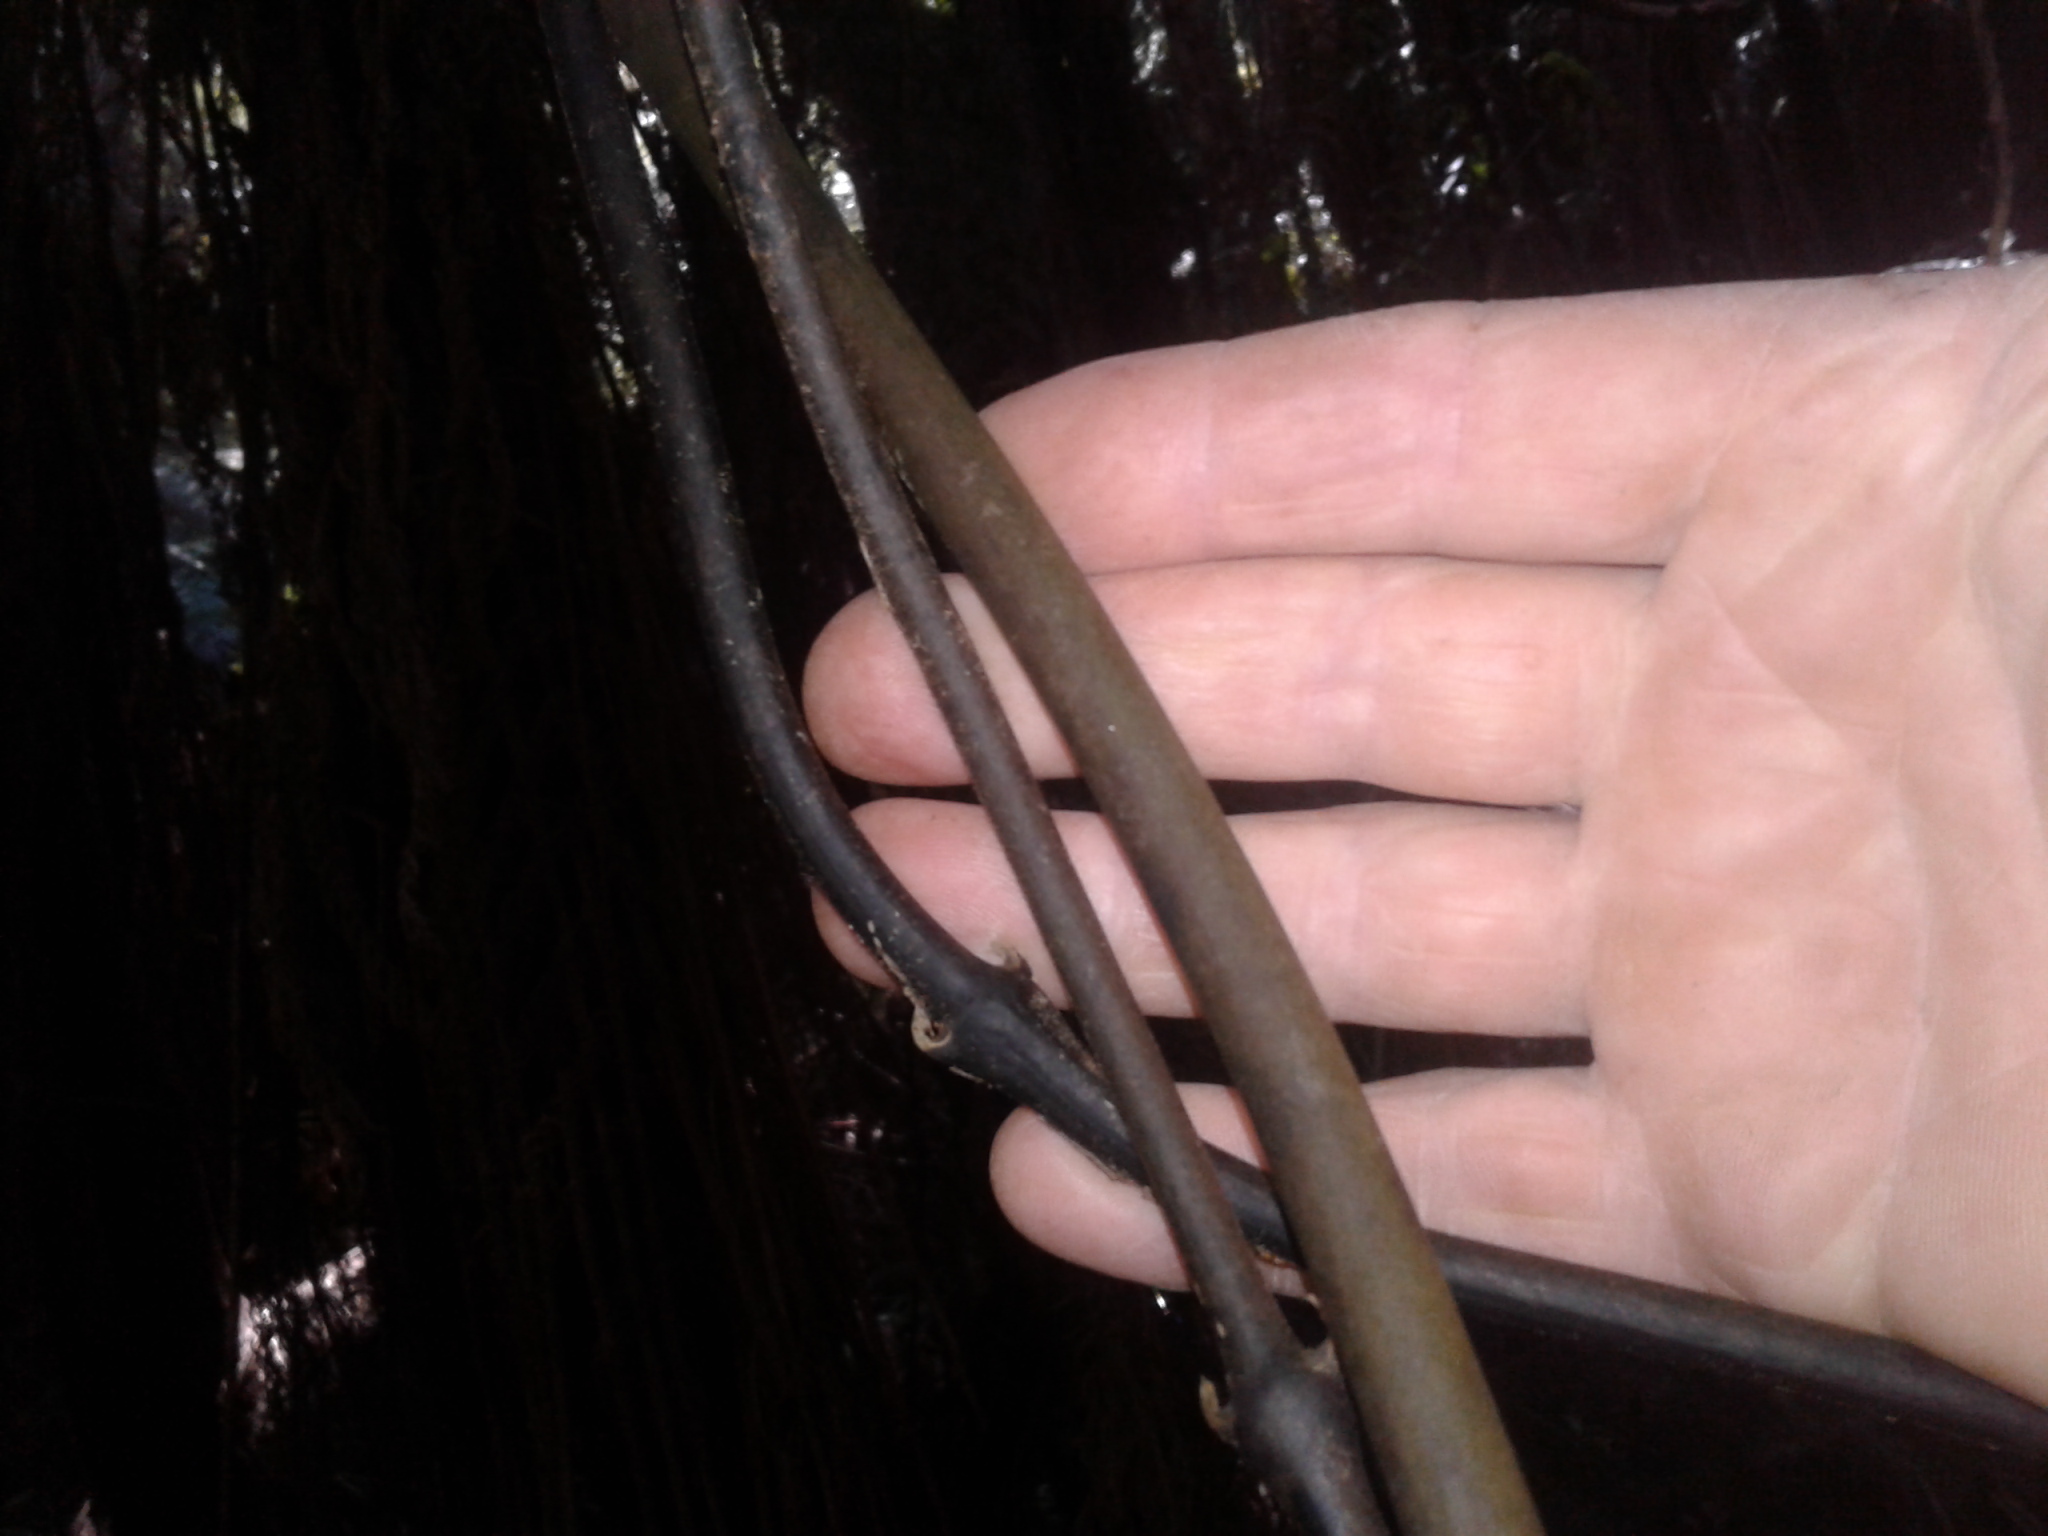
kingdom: Plantae
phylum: Tracheophyta
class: Liliopsida
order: Liliales
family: Ripogonaceae
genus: Ripogonum
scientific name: Ripogonum scandens
